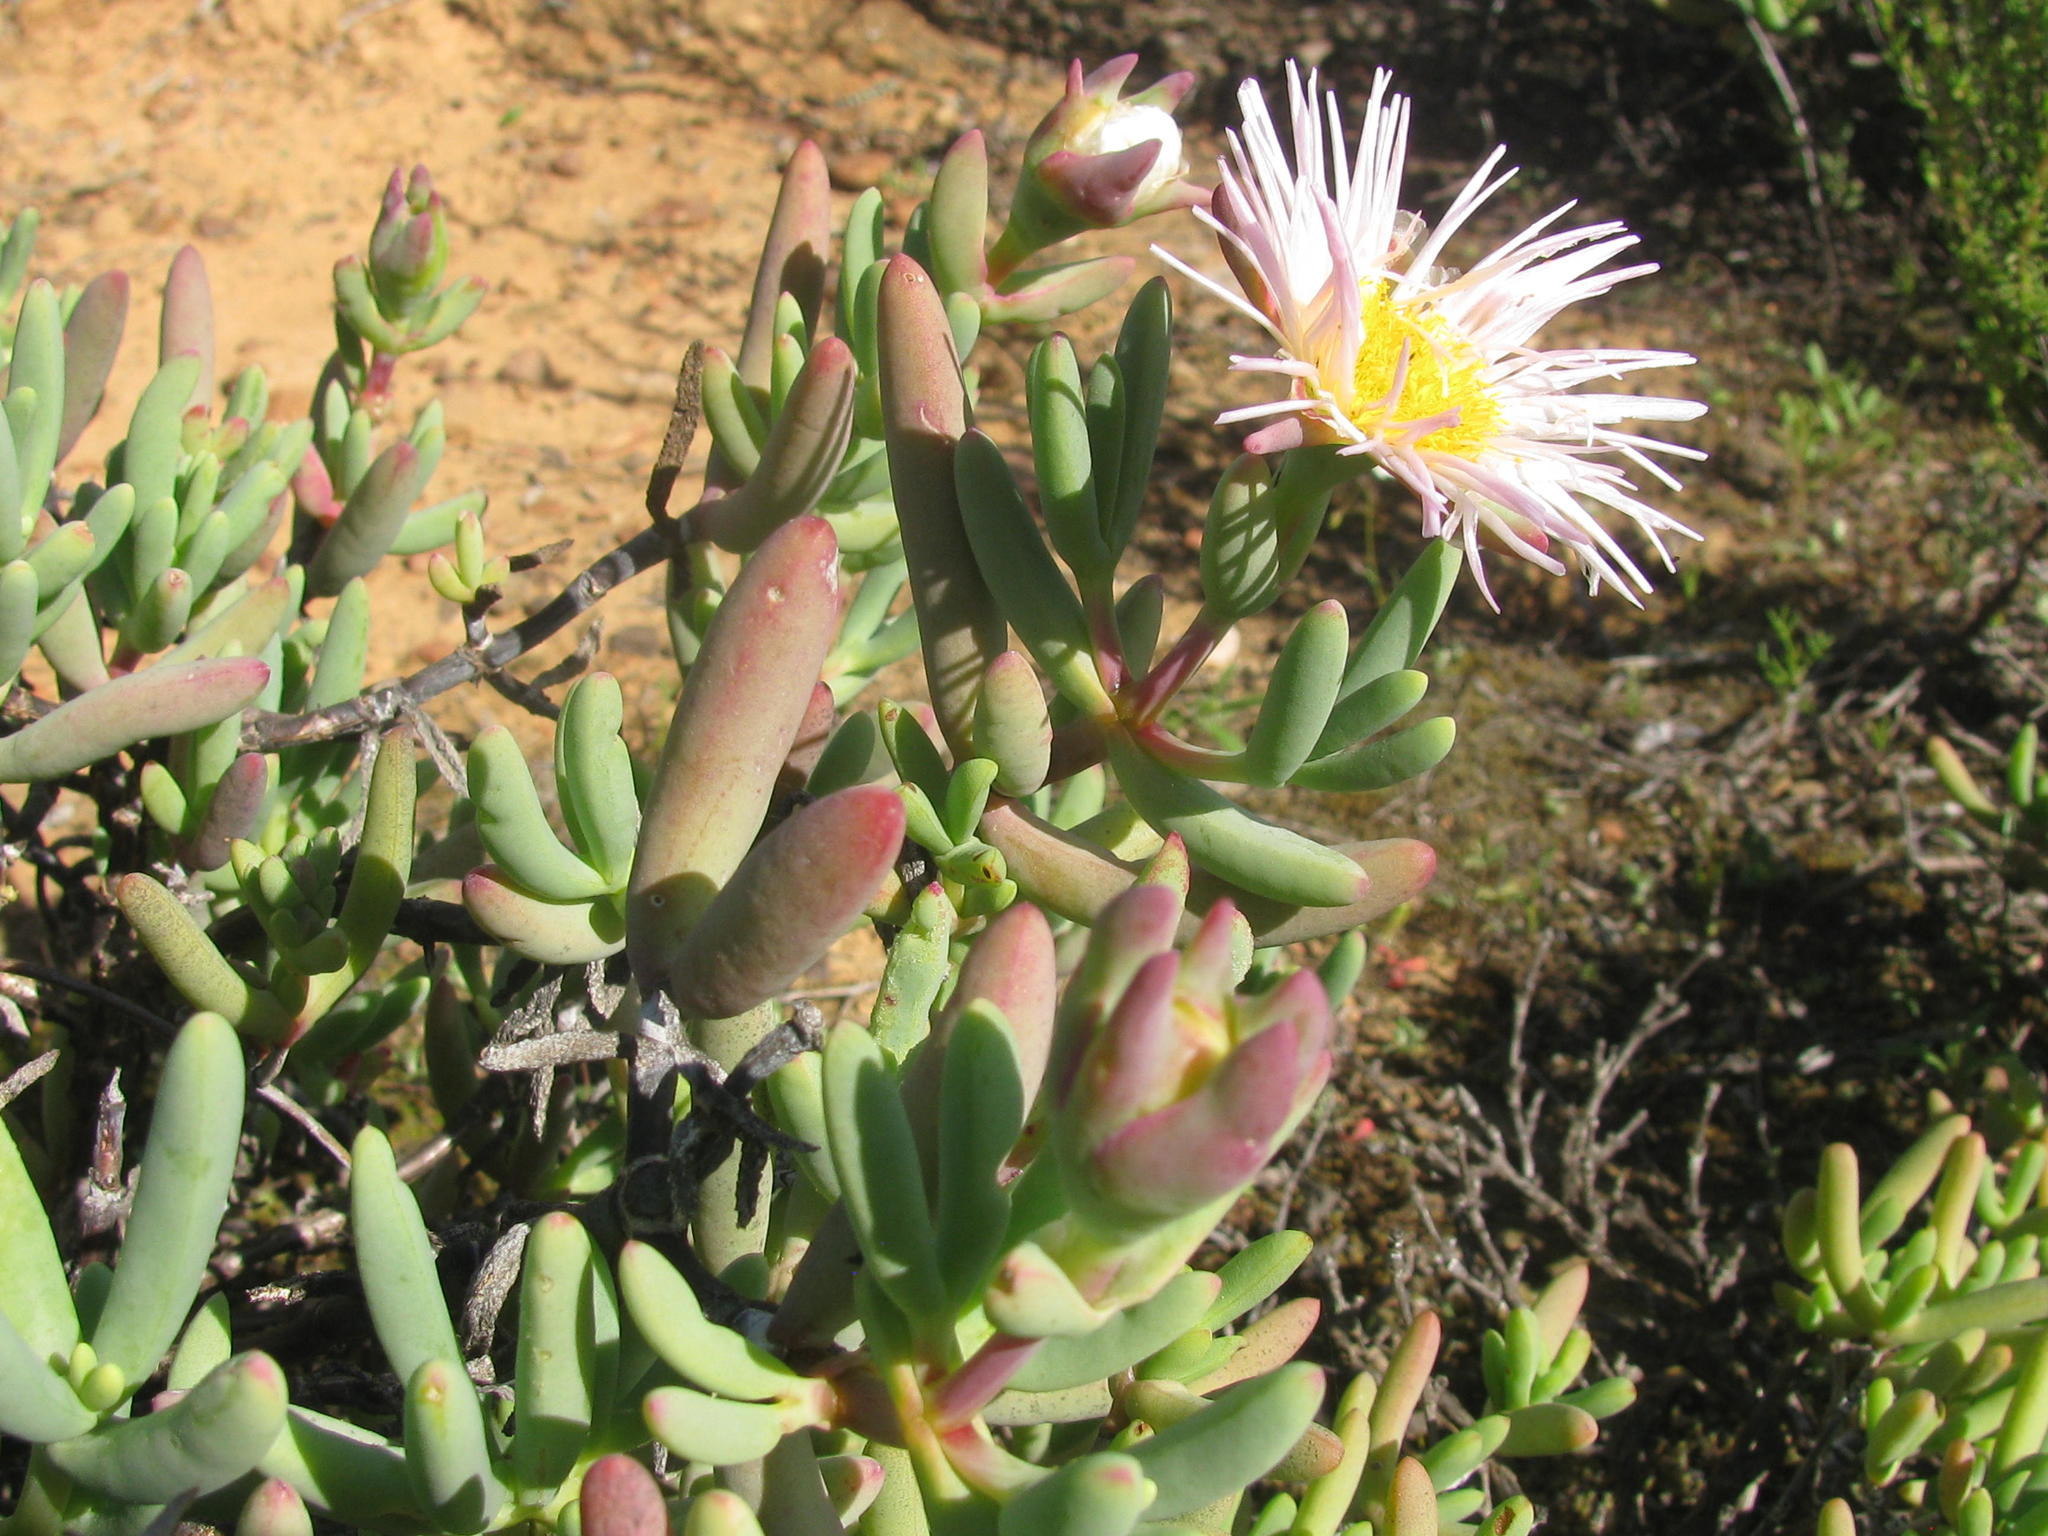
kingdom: Plantae
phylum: Tracheophyta
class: Magnoliopsida
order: Caryophyllales
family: Aizoaceae
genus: Lampranthus
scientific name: Lampranthus watermeyeri
